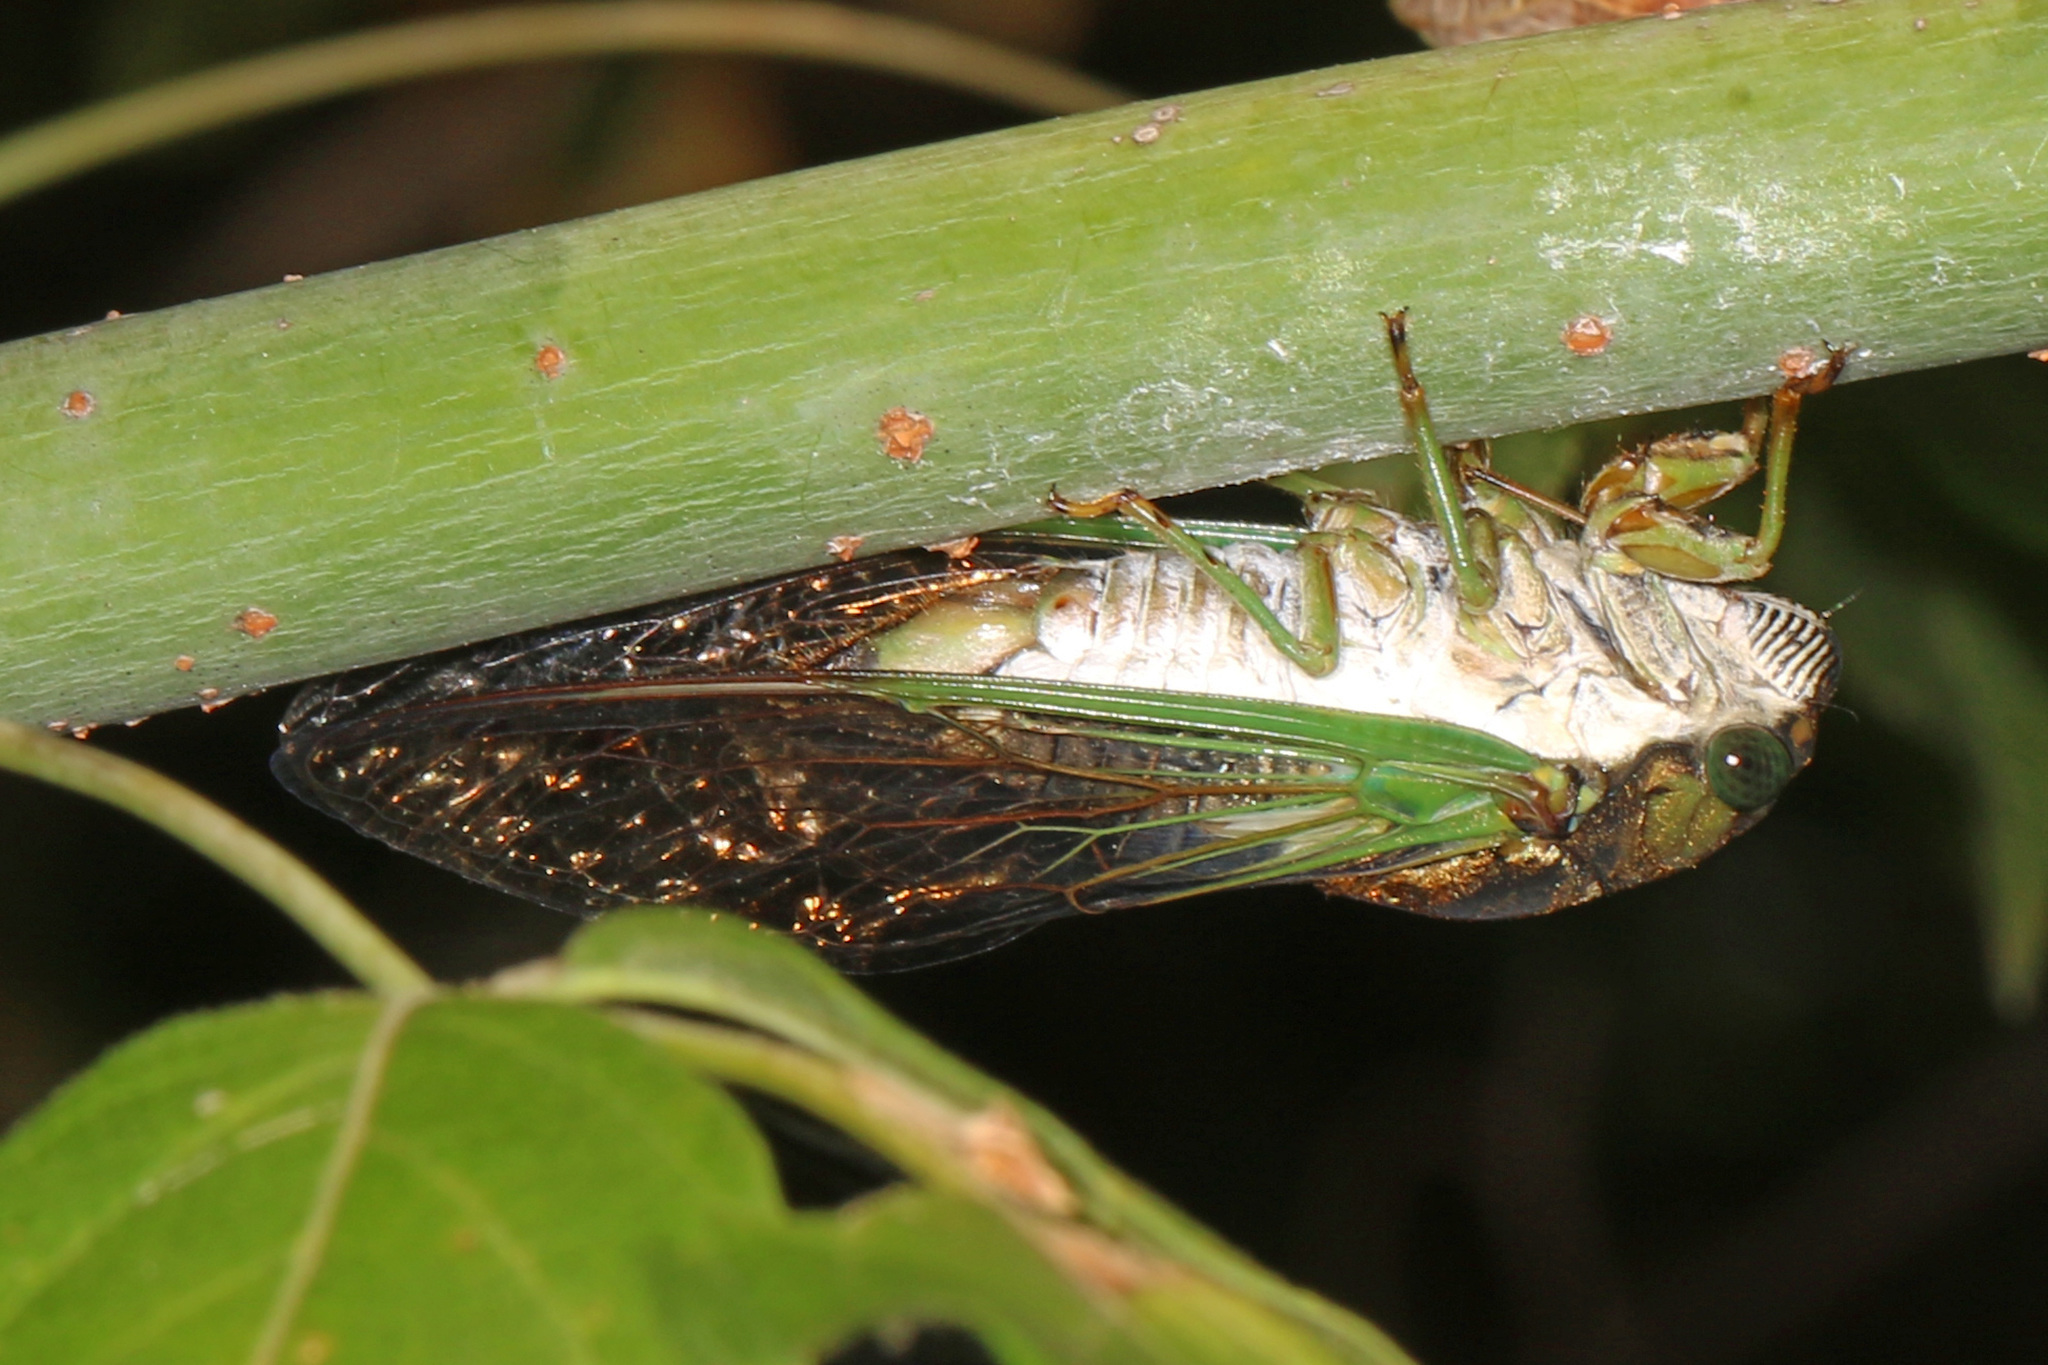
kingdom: Animalia
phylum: Arthropoda
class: Insecta
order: Hemiptera
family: Cicadidae
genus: Neotibicen
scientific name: Neotibicen tibicen
